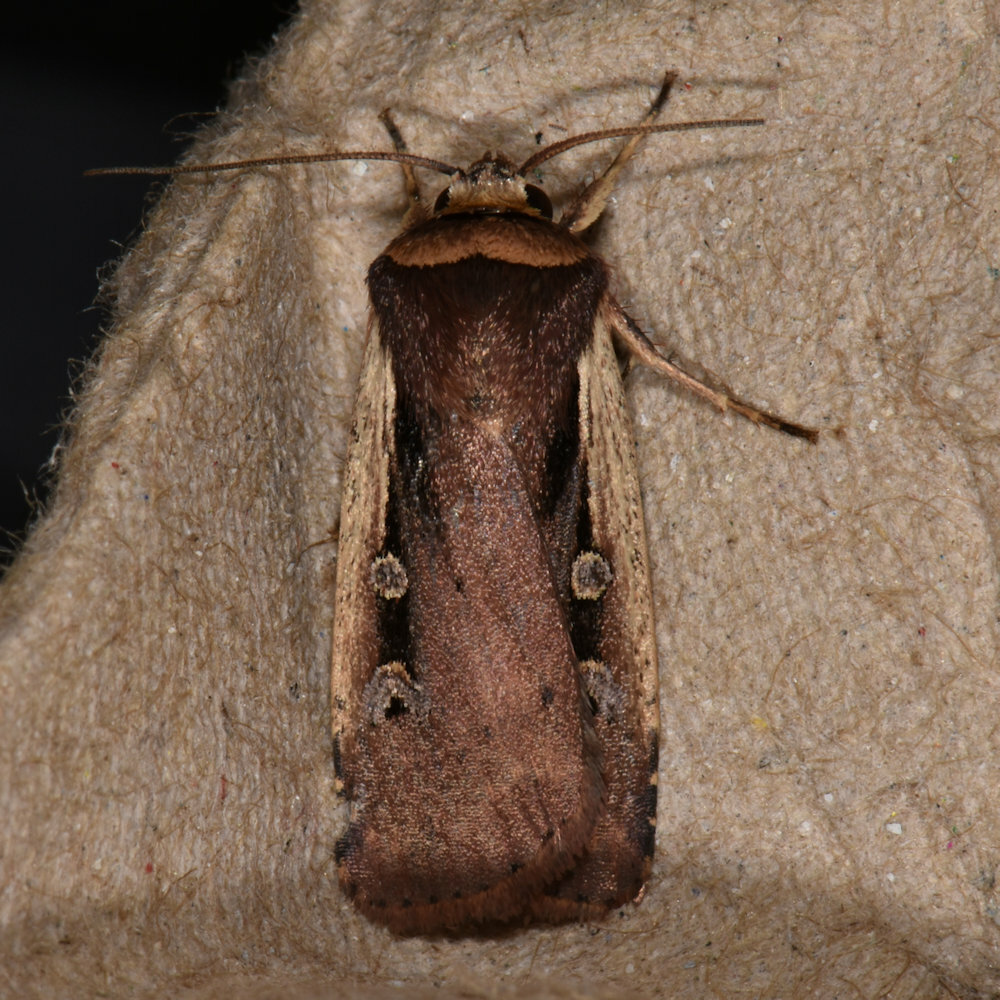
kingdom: Animalia
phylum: Arthropoda
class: Insecta
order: Lepidoptera
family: Noctuidae
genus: Ochropleura
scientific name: Ochropleura implecta
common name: Flame-shouldered dart
